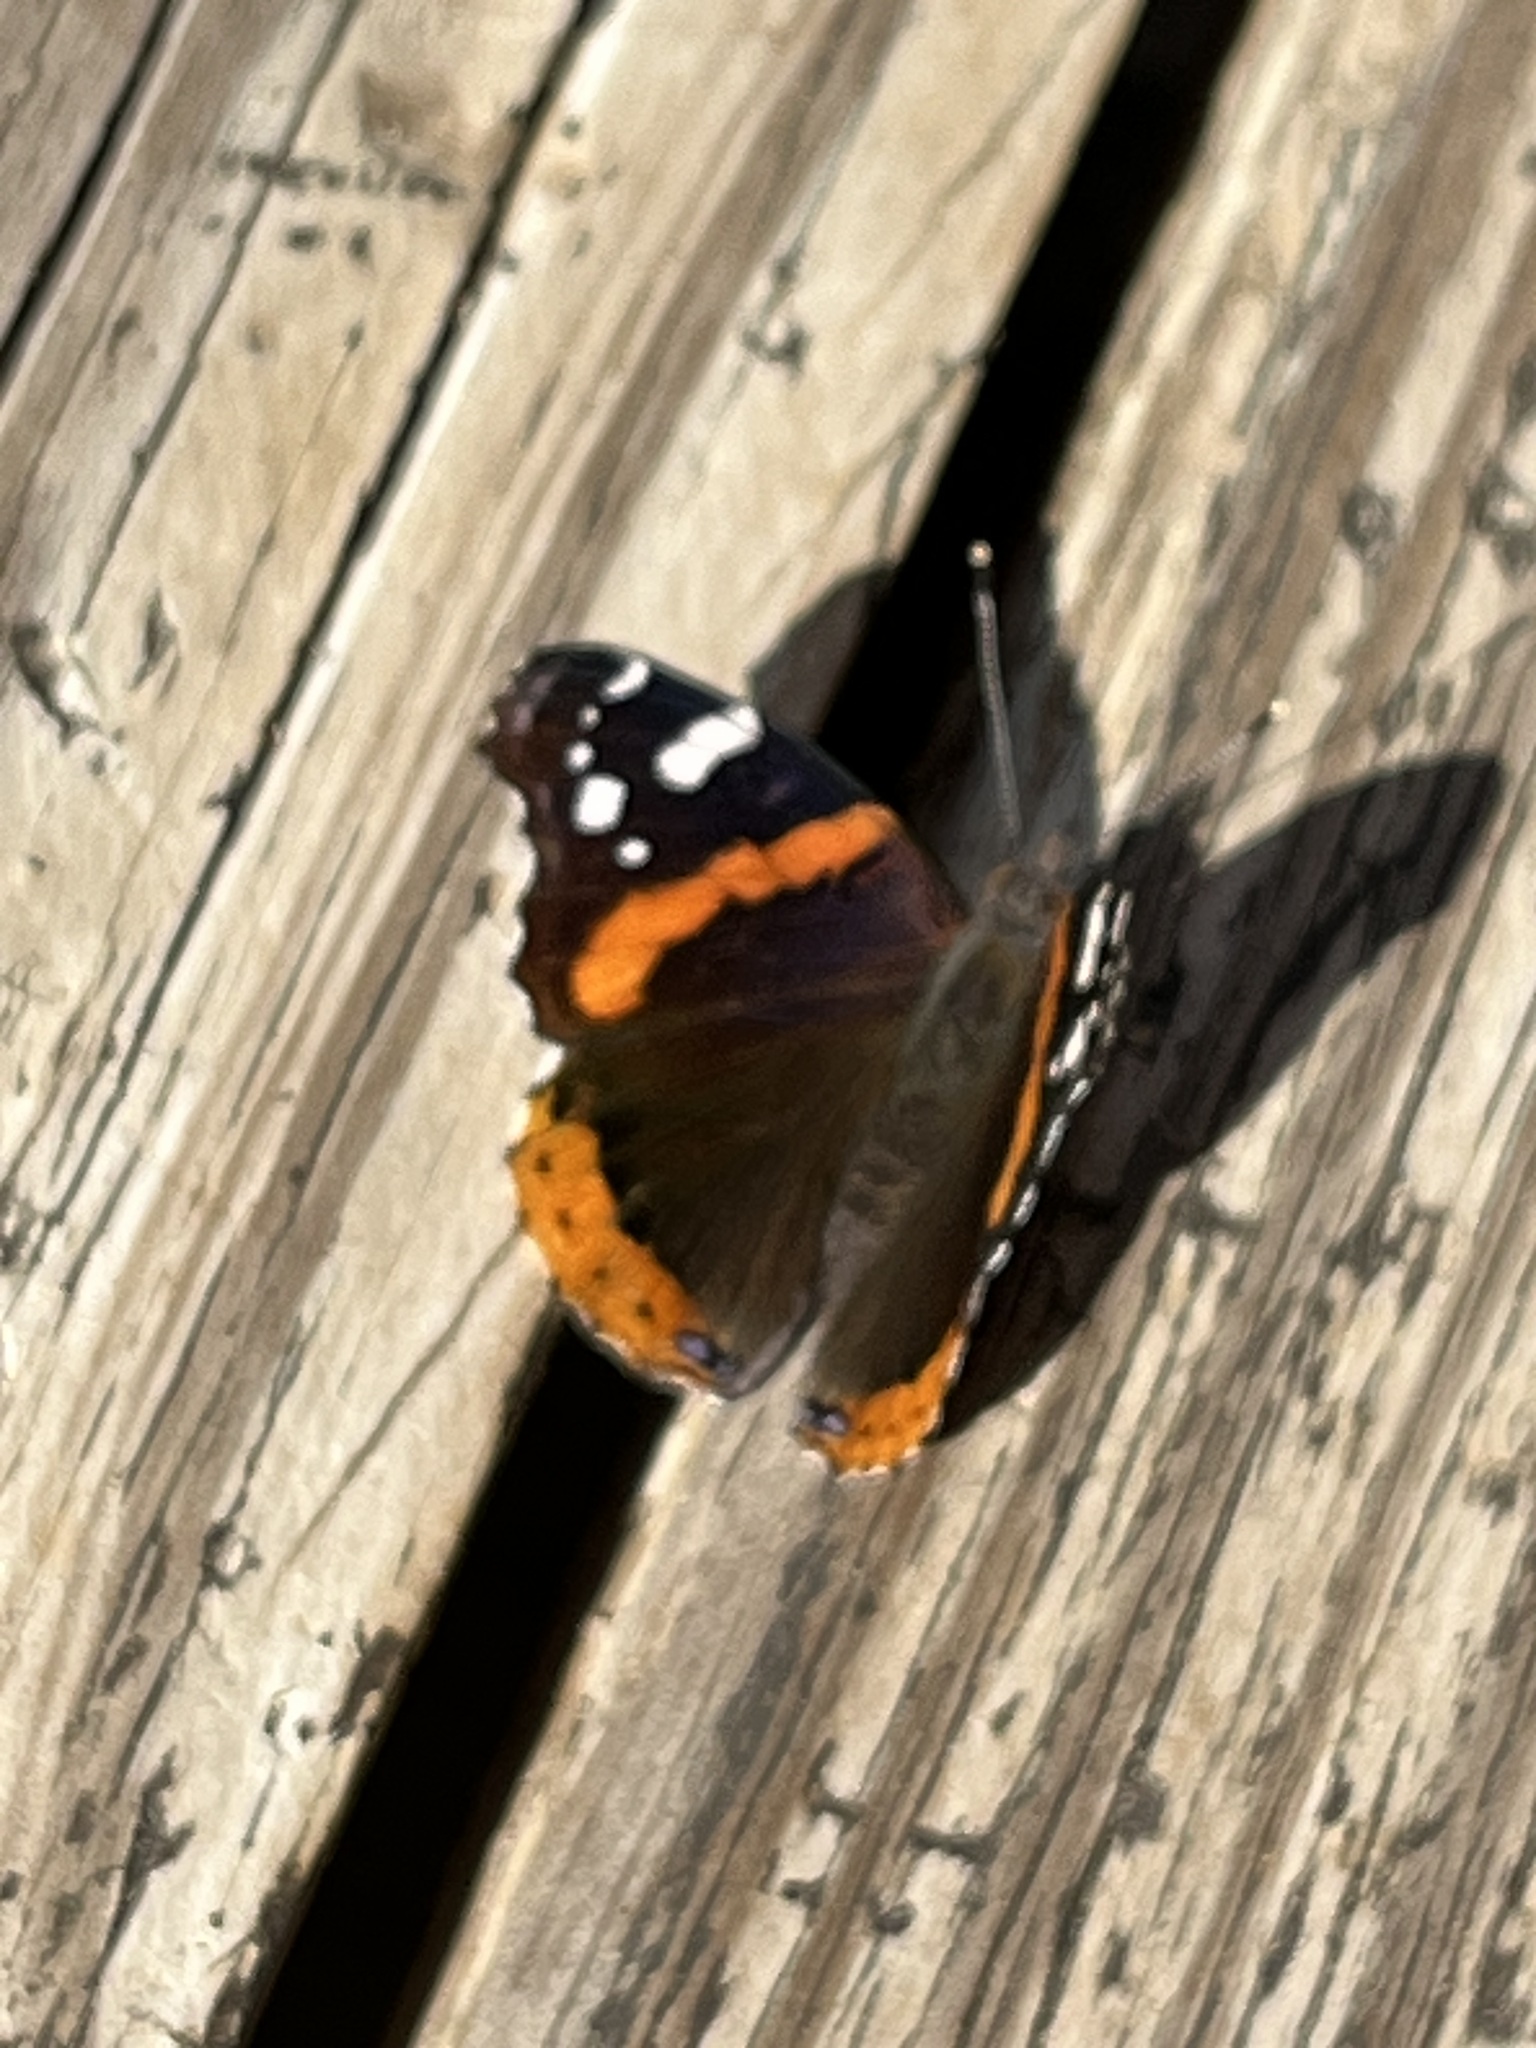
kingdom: Animalia
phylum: Arthropoda
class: Insecta
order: Lepidoptera
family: Nymphalidae
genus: Vanessa
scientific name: Vanessa atalanta
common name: Red admiral
